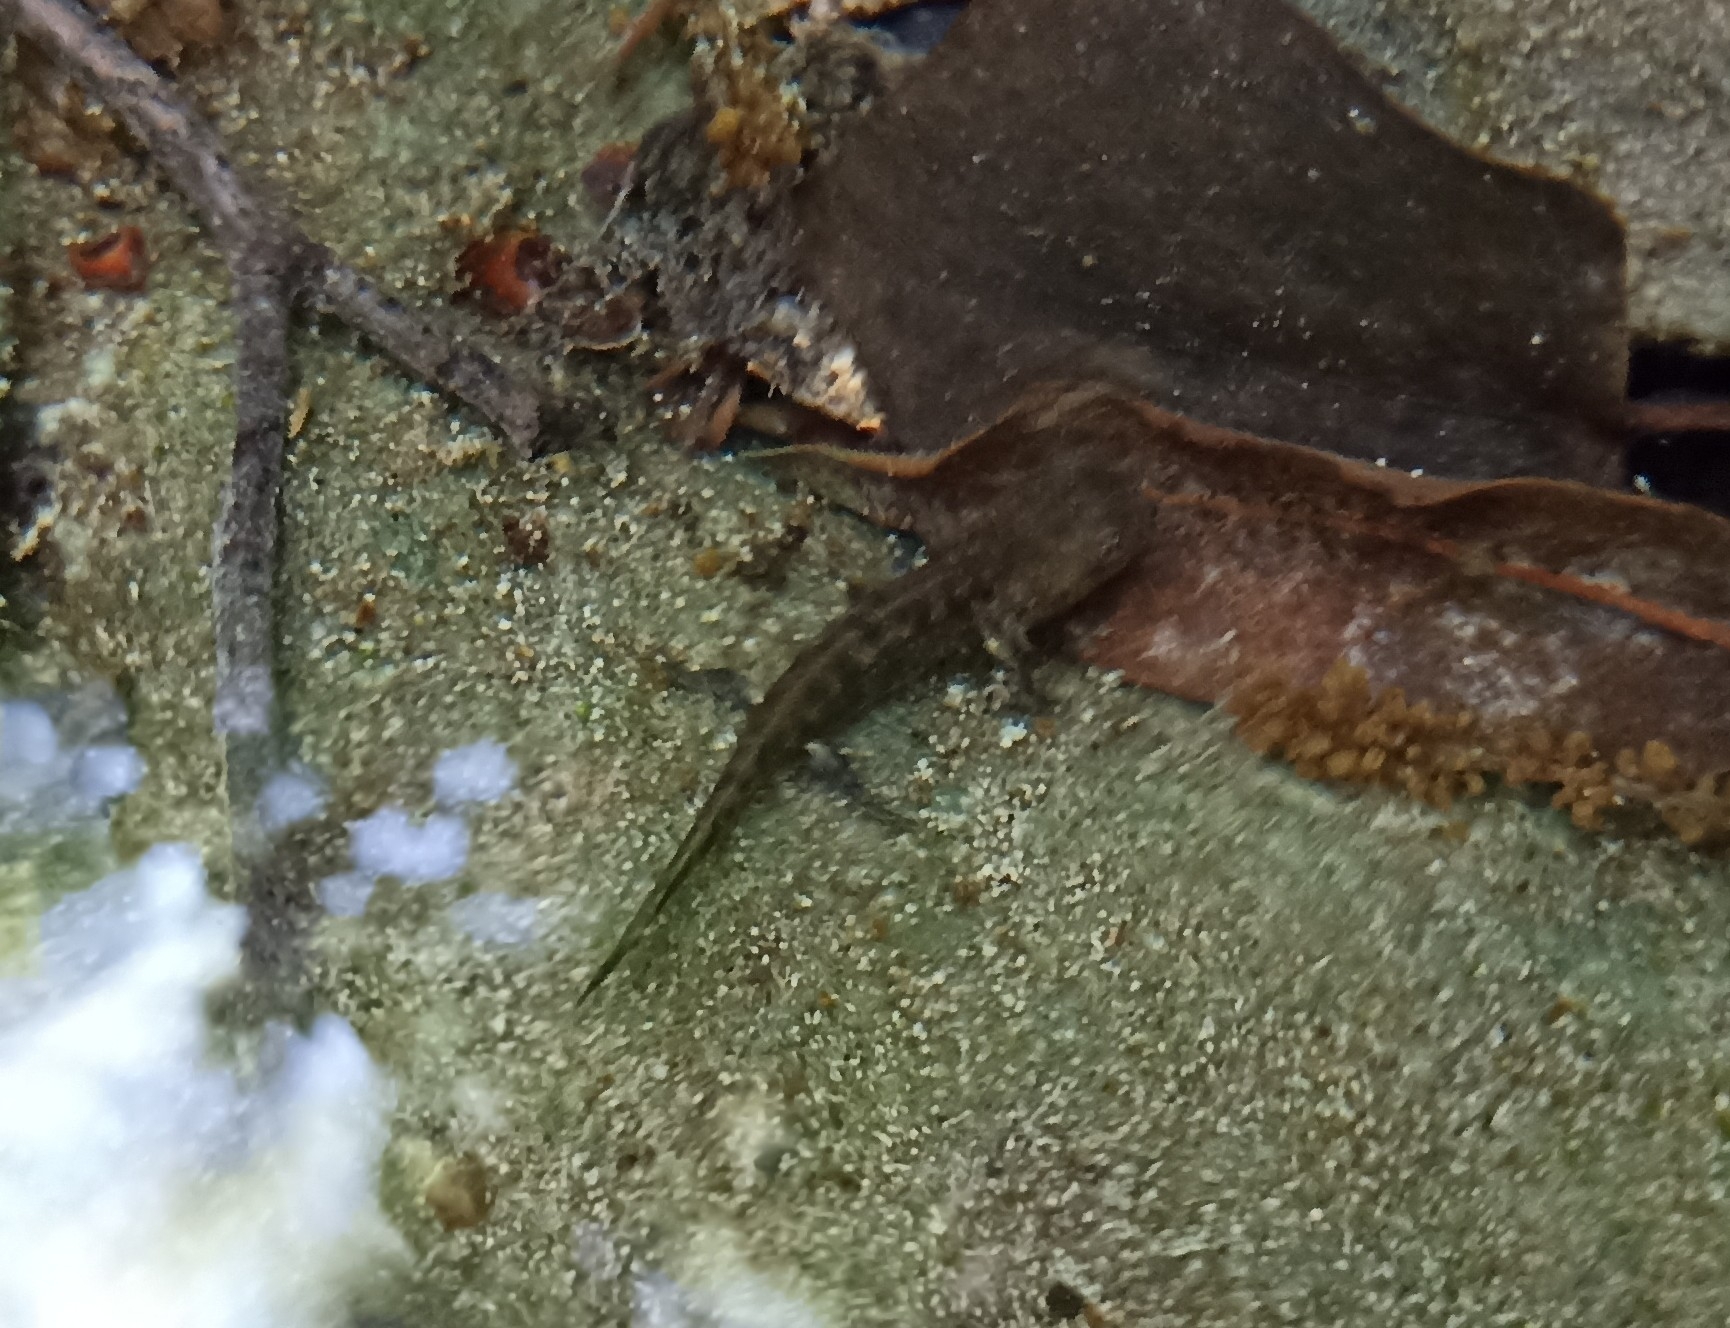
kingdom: Animalia
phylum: Chordata
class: Amphibia
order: Caudata
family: Salamandridae
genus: Salamandra
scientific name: Salamandra salamandra
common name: Fire salamander
